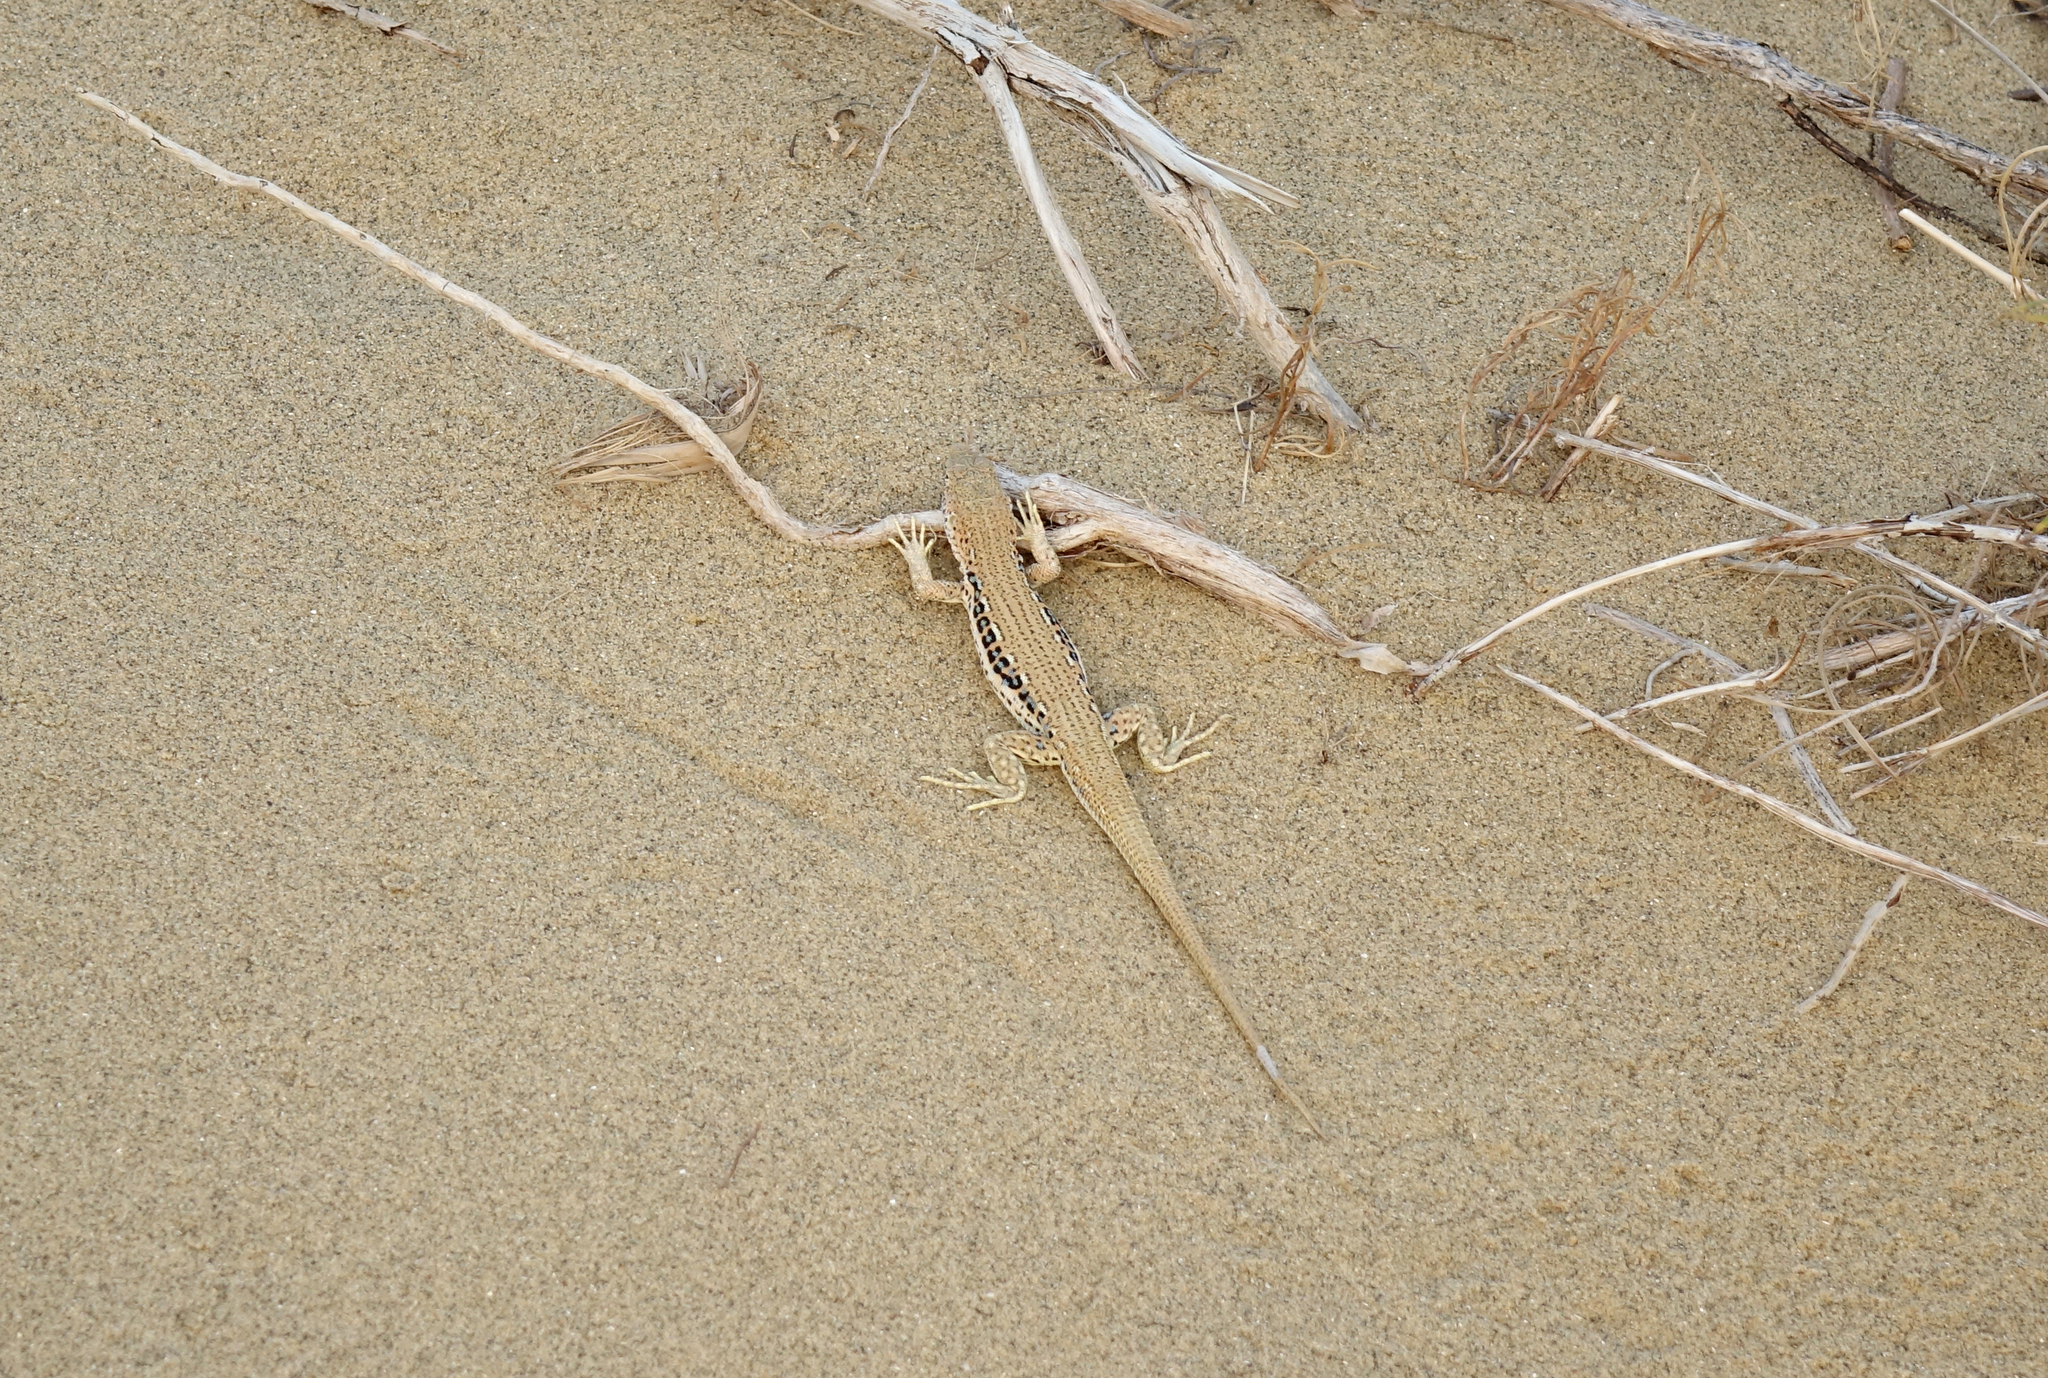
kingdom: Animalia
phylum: Chordata
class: Squamata
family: Lacertidae
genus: Eremias
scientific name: Eremias velox
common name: Central asian racerunner
